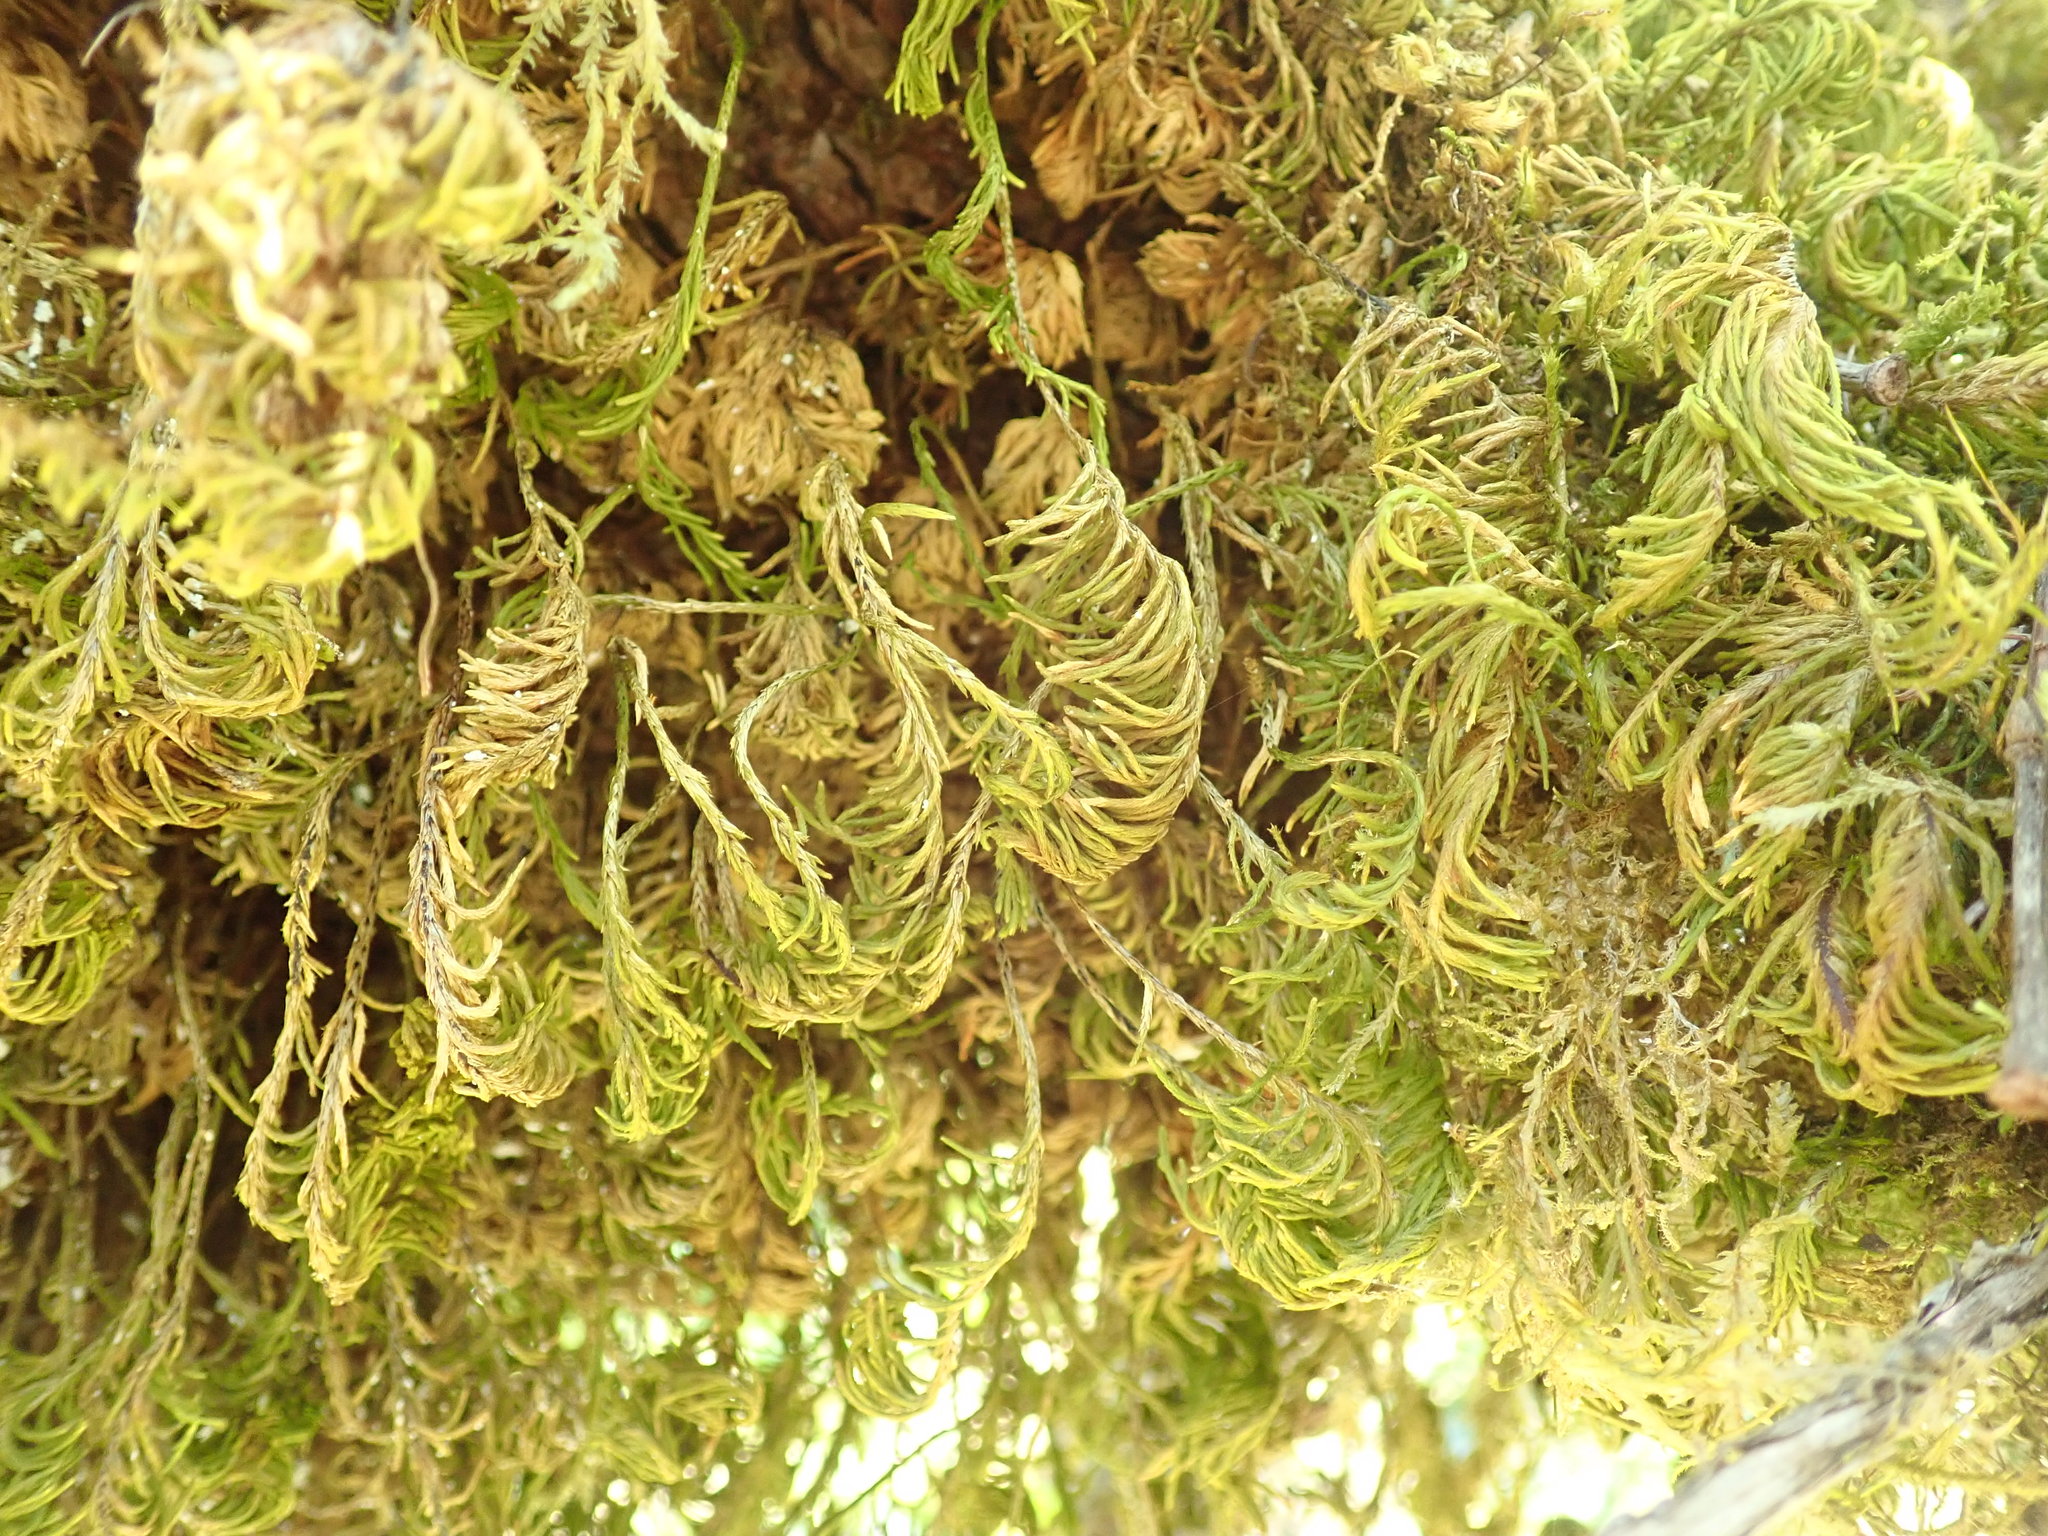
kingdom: Plantae
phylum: Bryophyta
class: Bryopsida
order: Hypnales
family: Cryphaeaceae
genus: Dendroalsia
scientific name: Dendroalsia abietina
